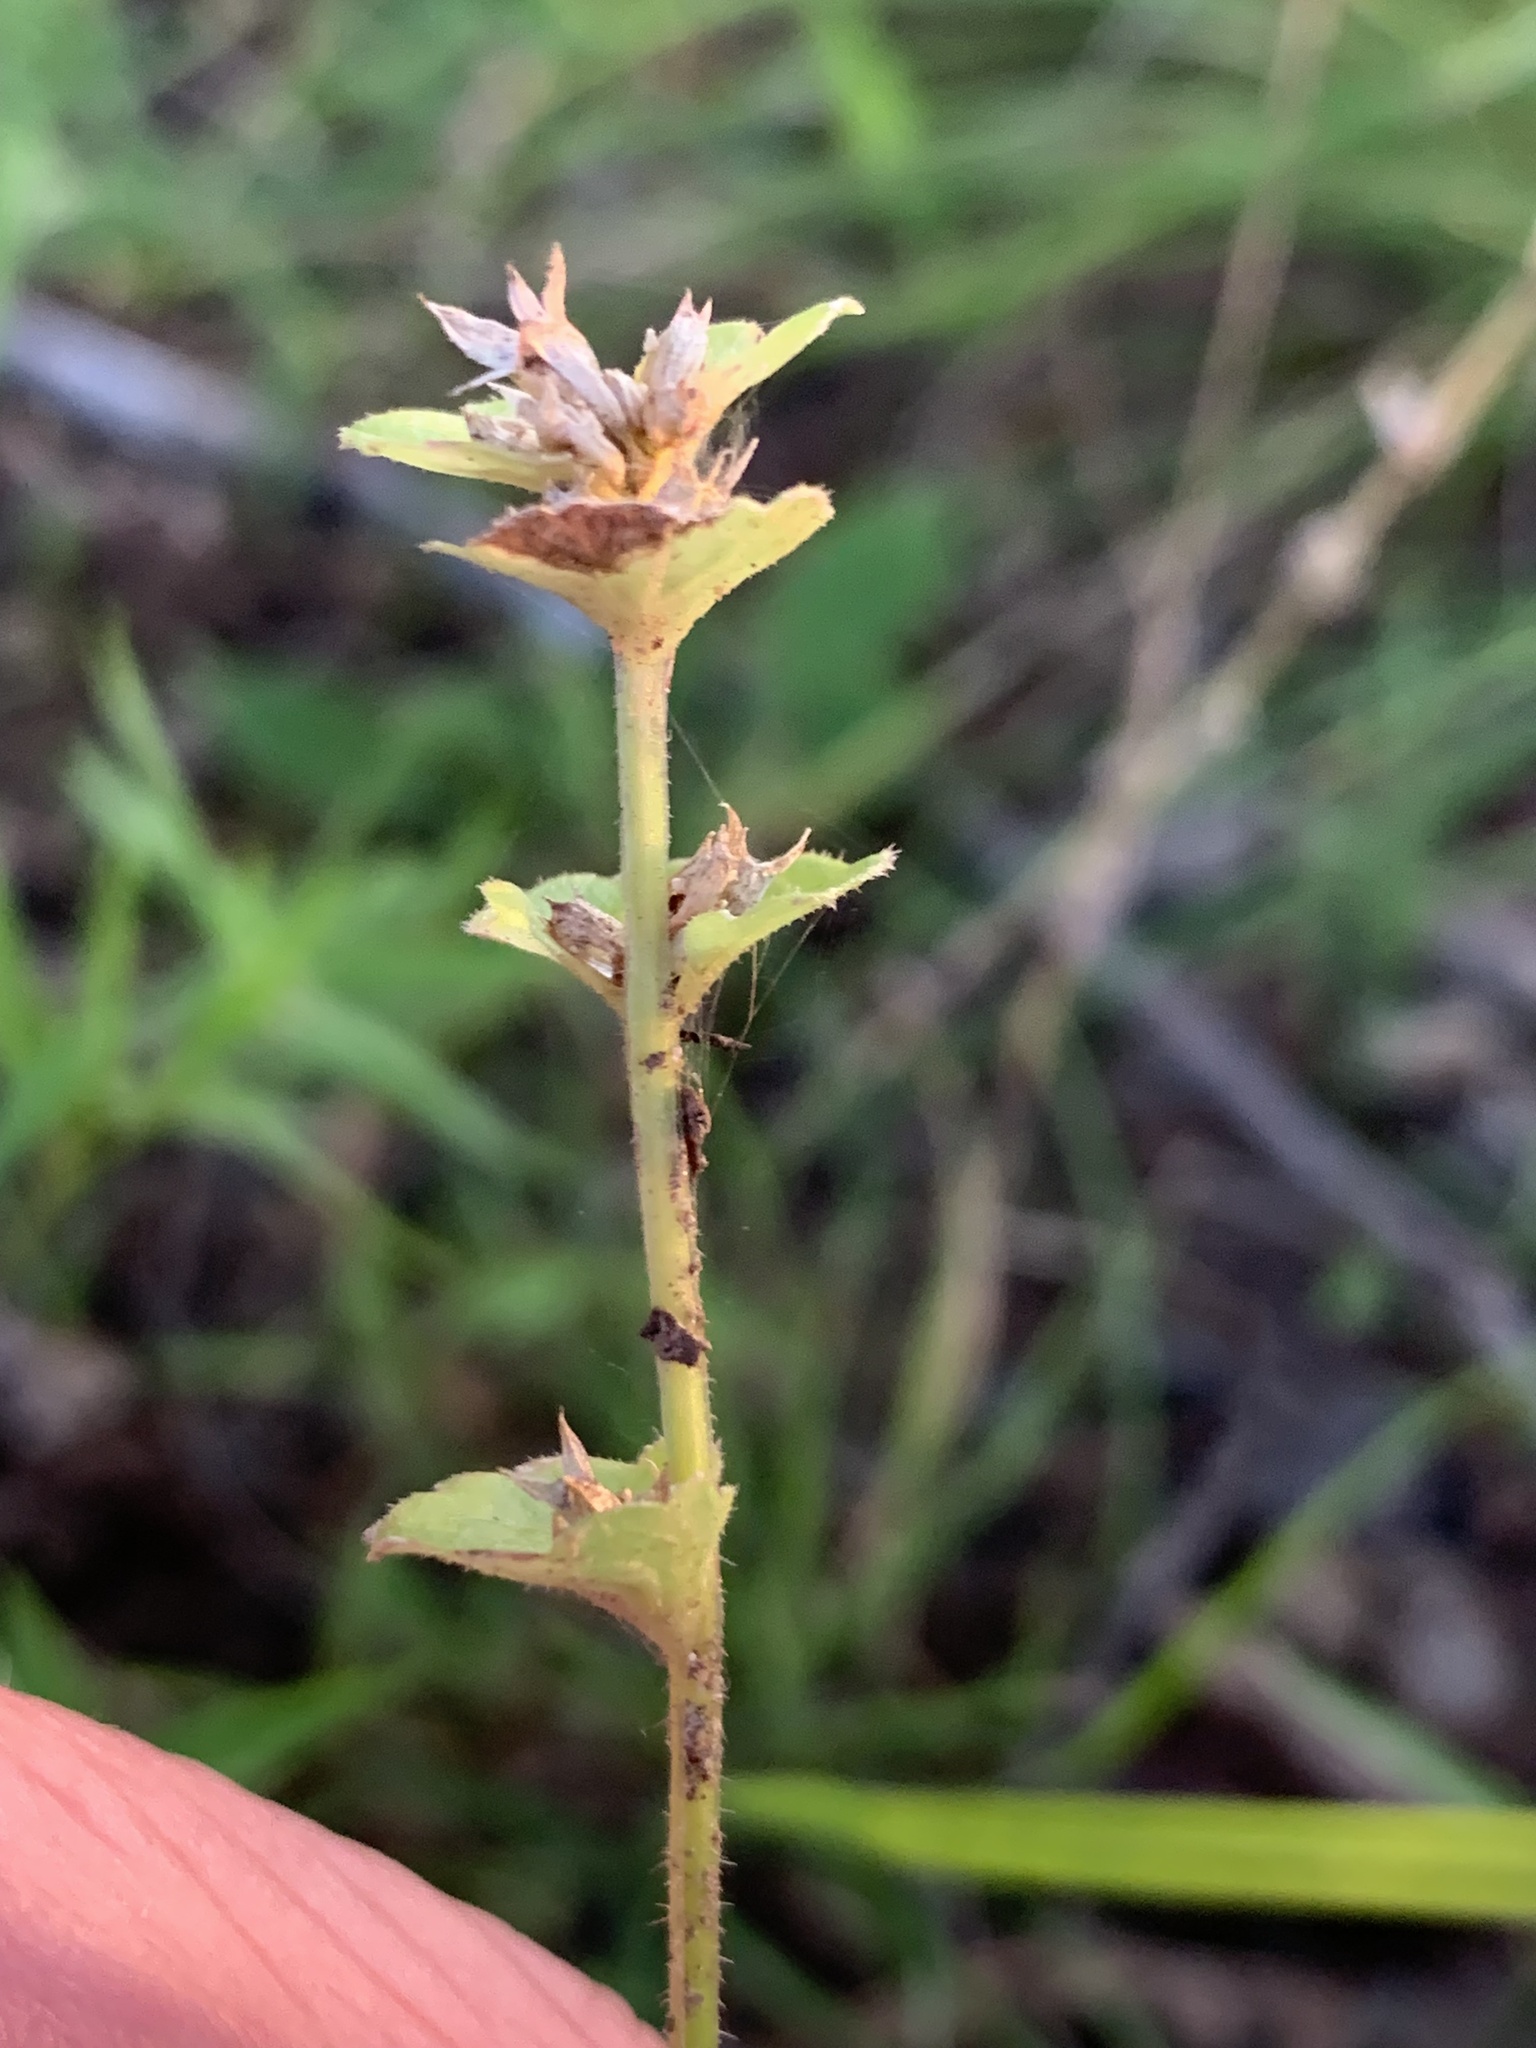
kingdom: Plantae
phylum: Tracheophyta
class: Magnoliopsida
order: Asterales
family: Campanulaceae
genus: Triodanis
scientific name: Triodanis perfoliata
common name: Clasping venus' looking-glass
